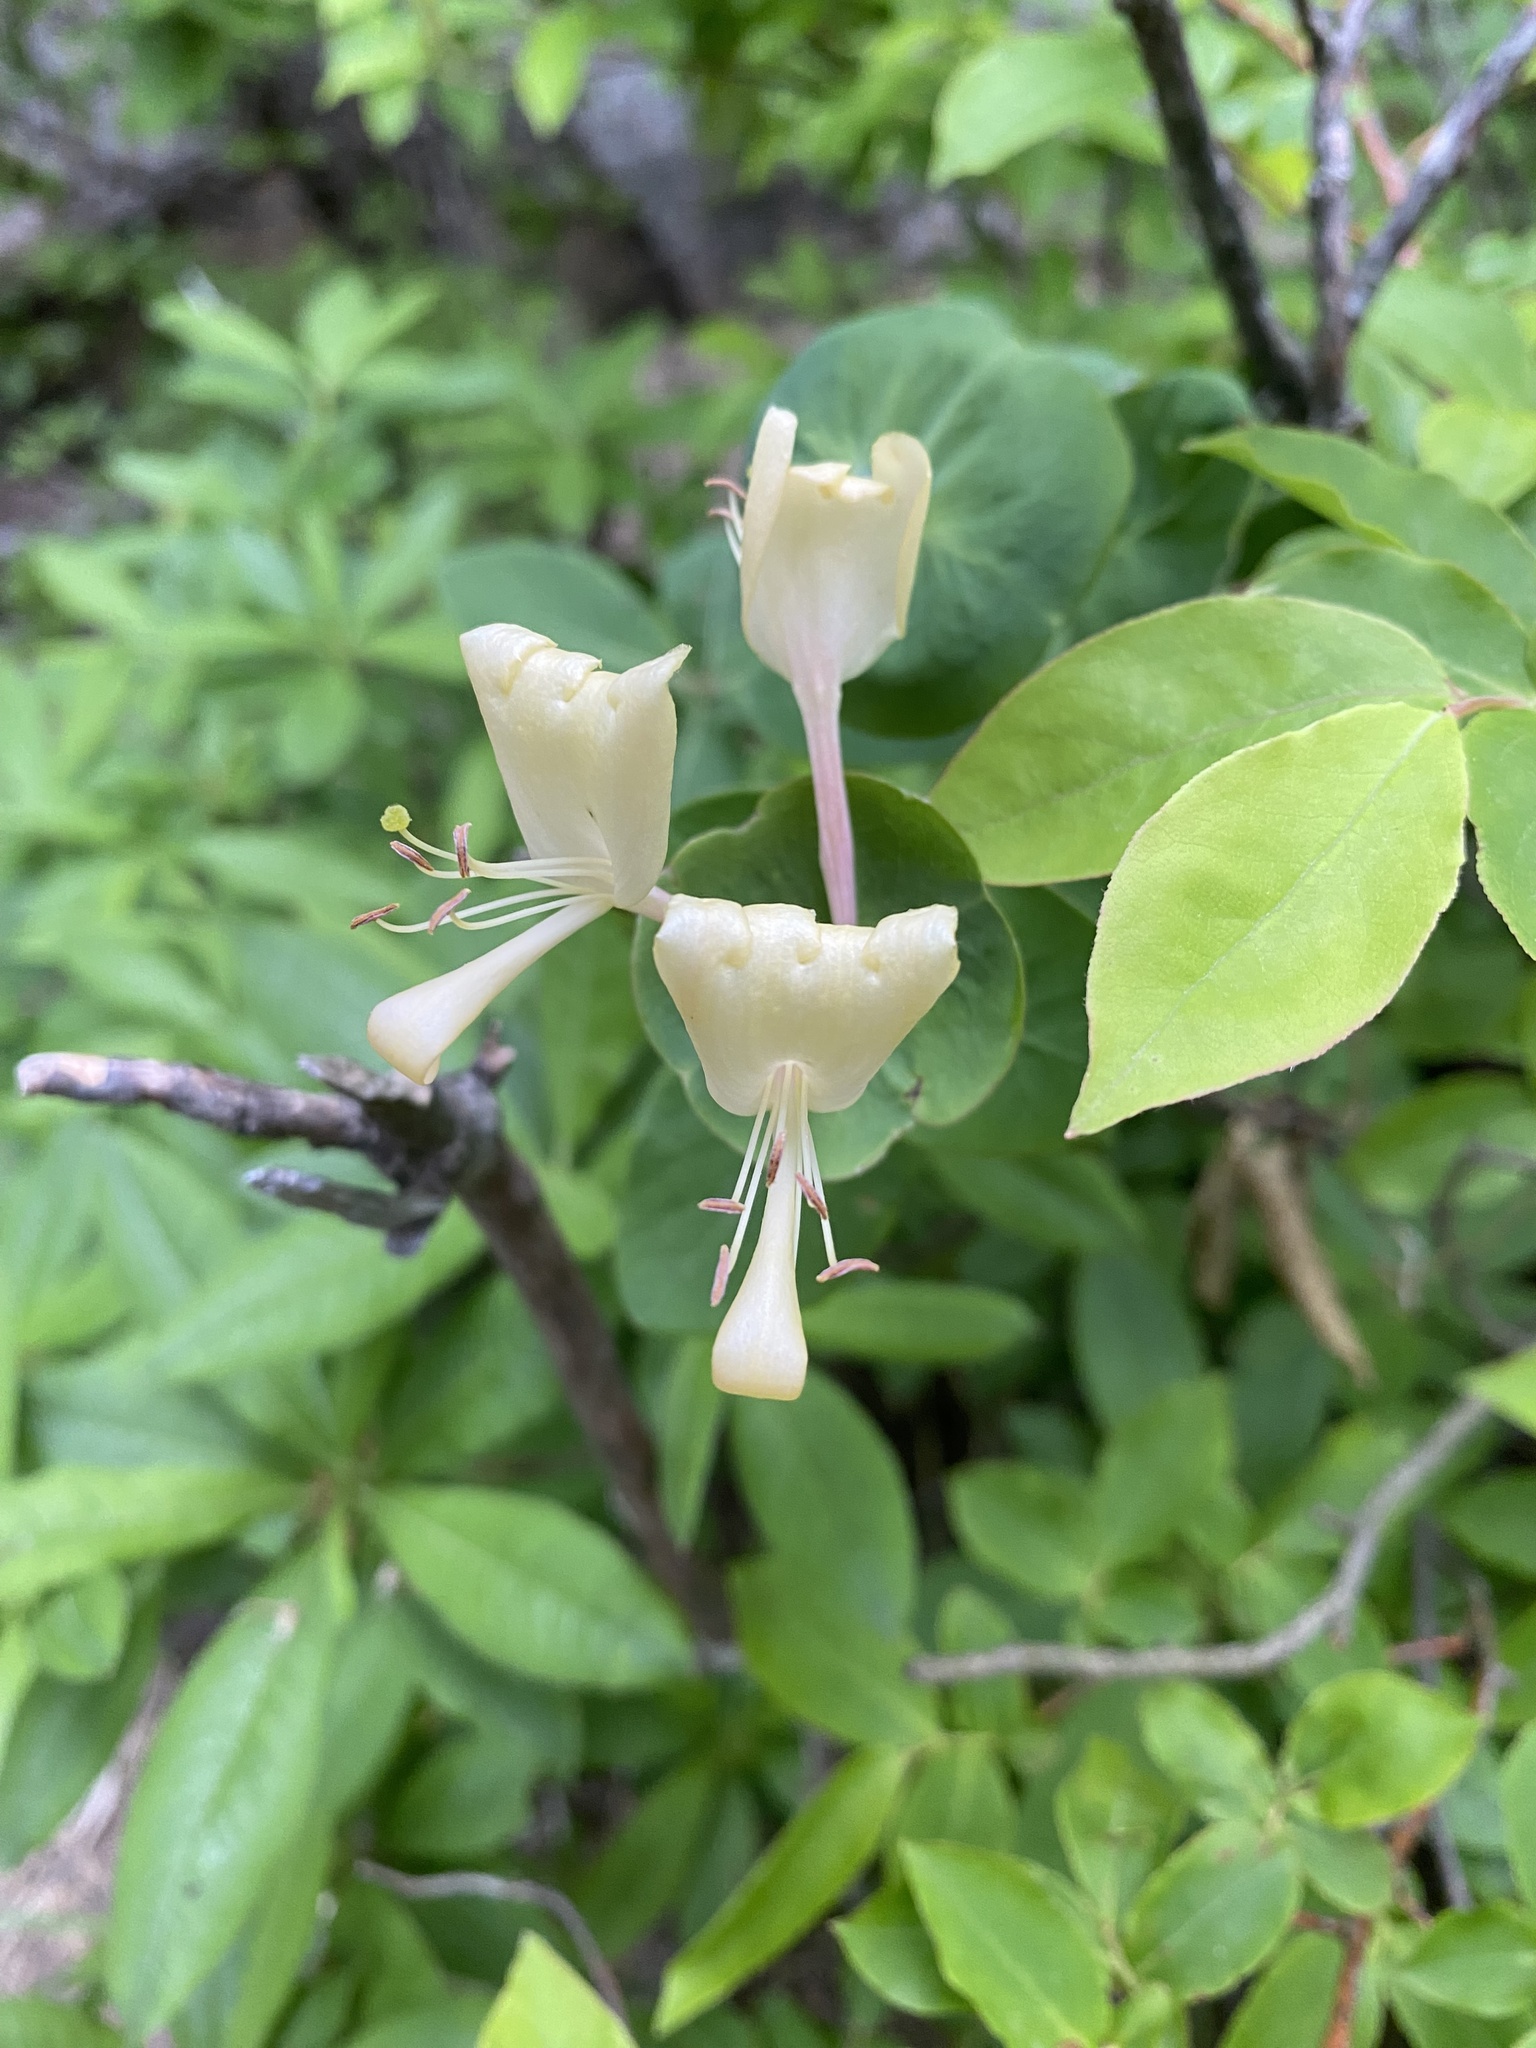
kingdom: Plantae
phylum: Tracheophyta
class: Magnoliopsida
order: Dipsacales
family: Caprifoliaceae
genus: Lonicera
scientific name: Lonicera caprifolium
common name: Perfoliate honeysuckle
